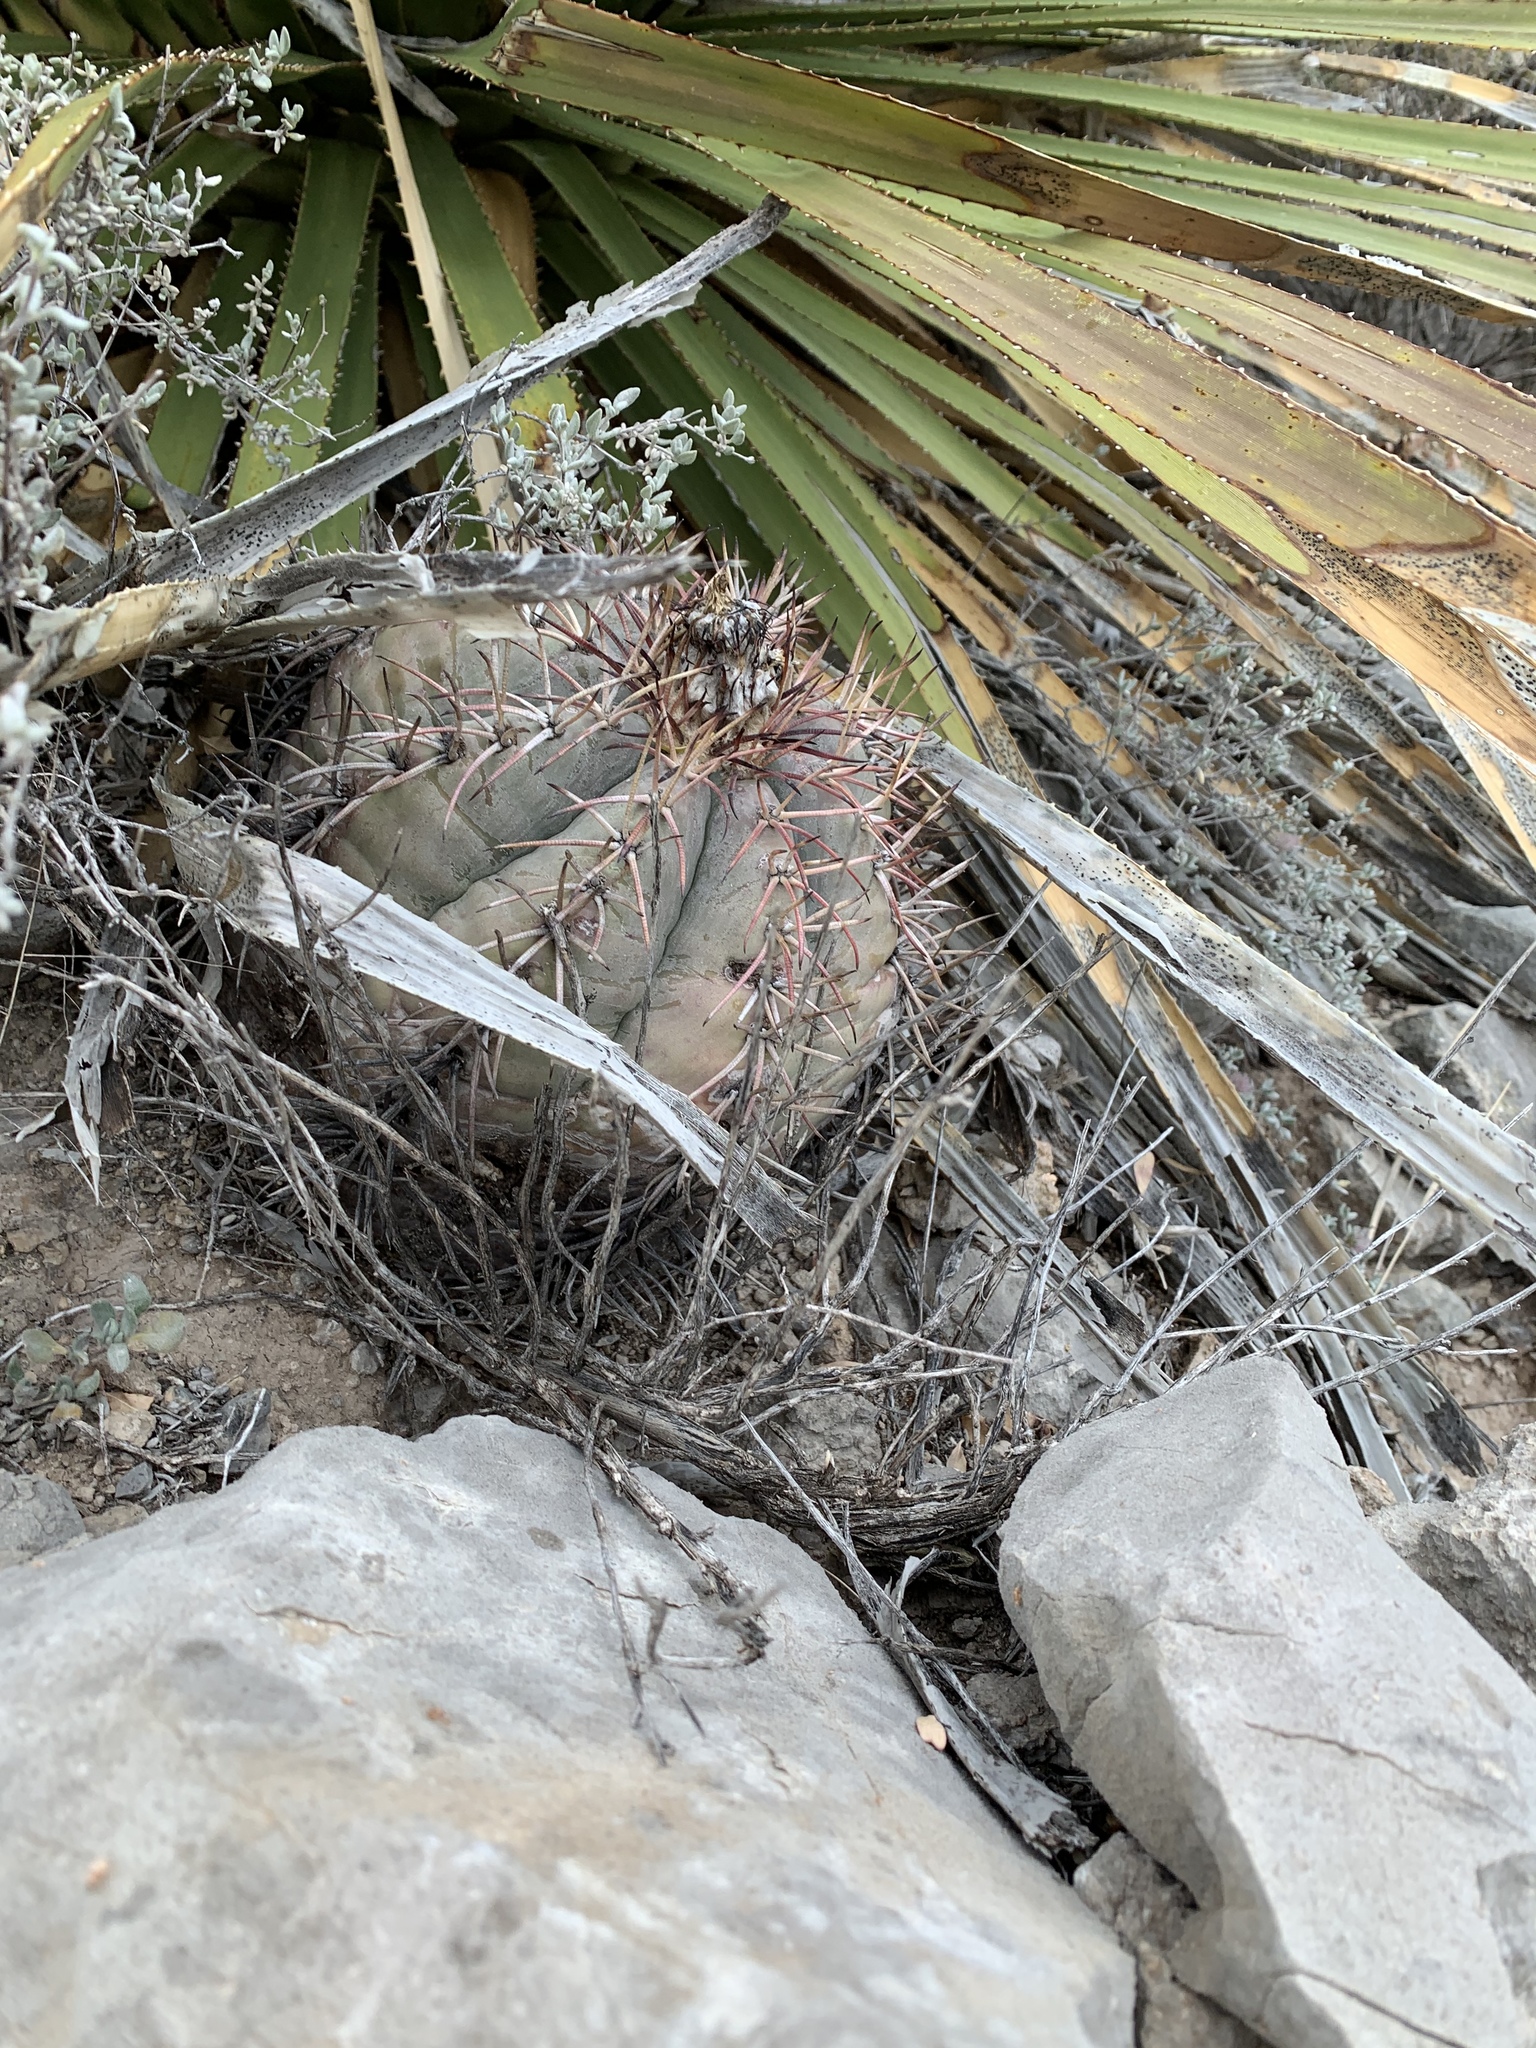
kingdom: Plantae
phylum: Tracheophyta
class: Magnoliopsida
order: Caryophyllales
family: Cactaceae
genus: Echinocactus
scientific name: Echinocactus horizonthalonius
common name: Devilshead
